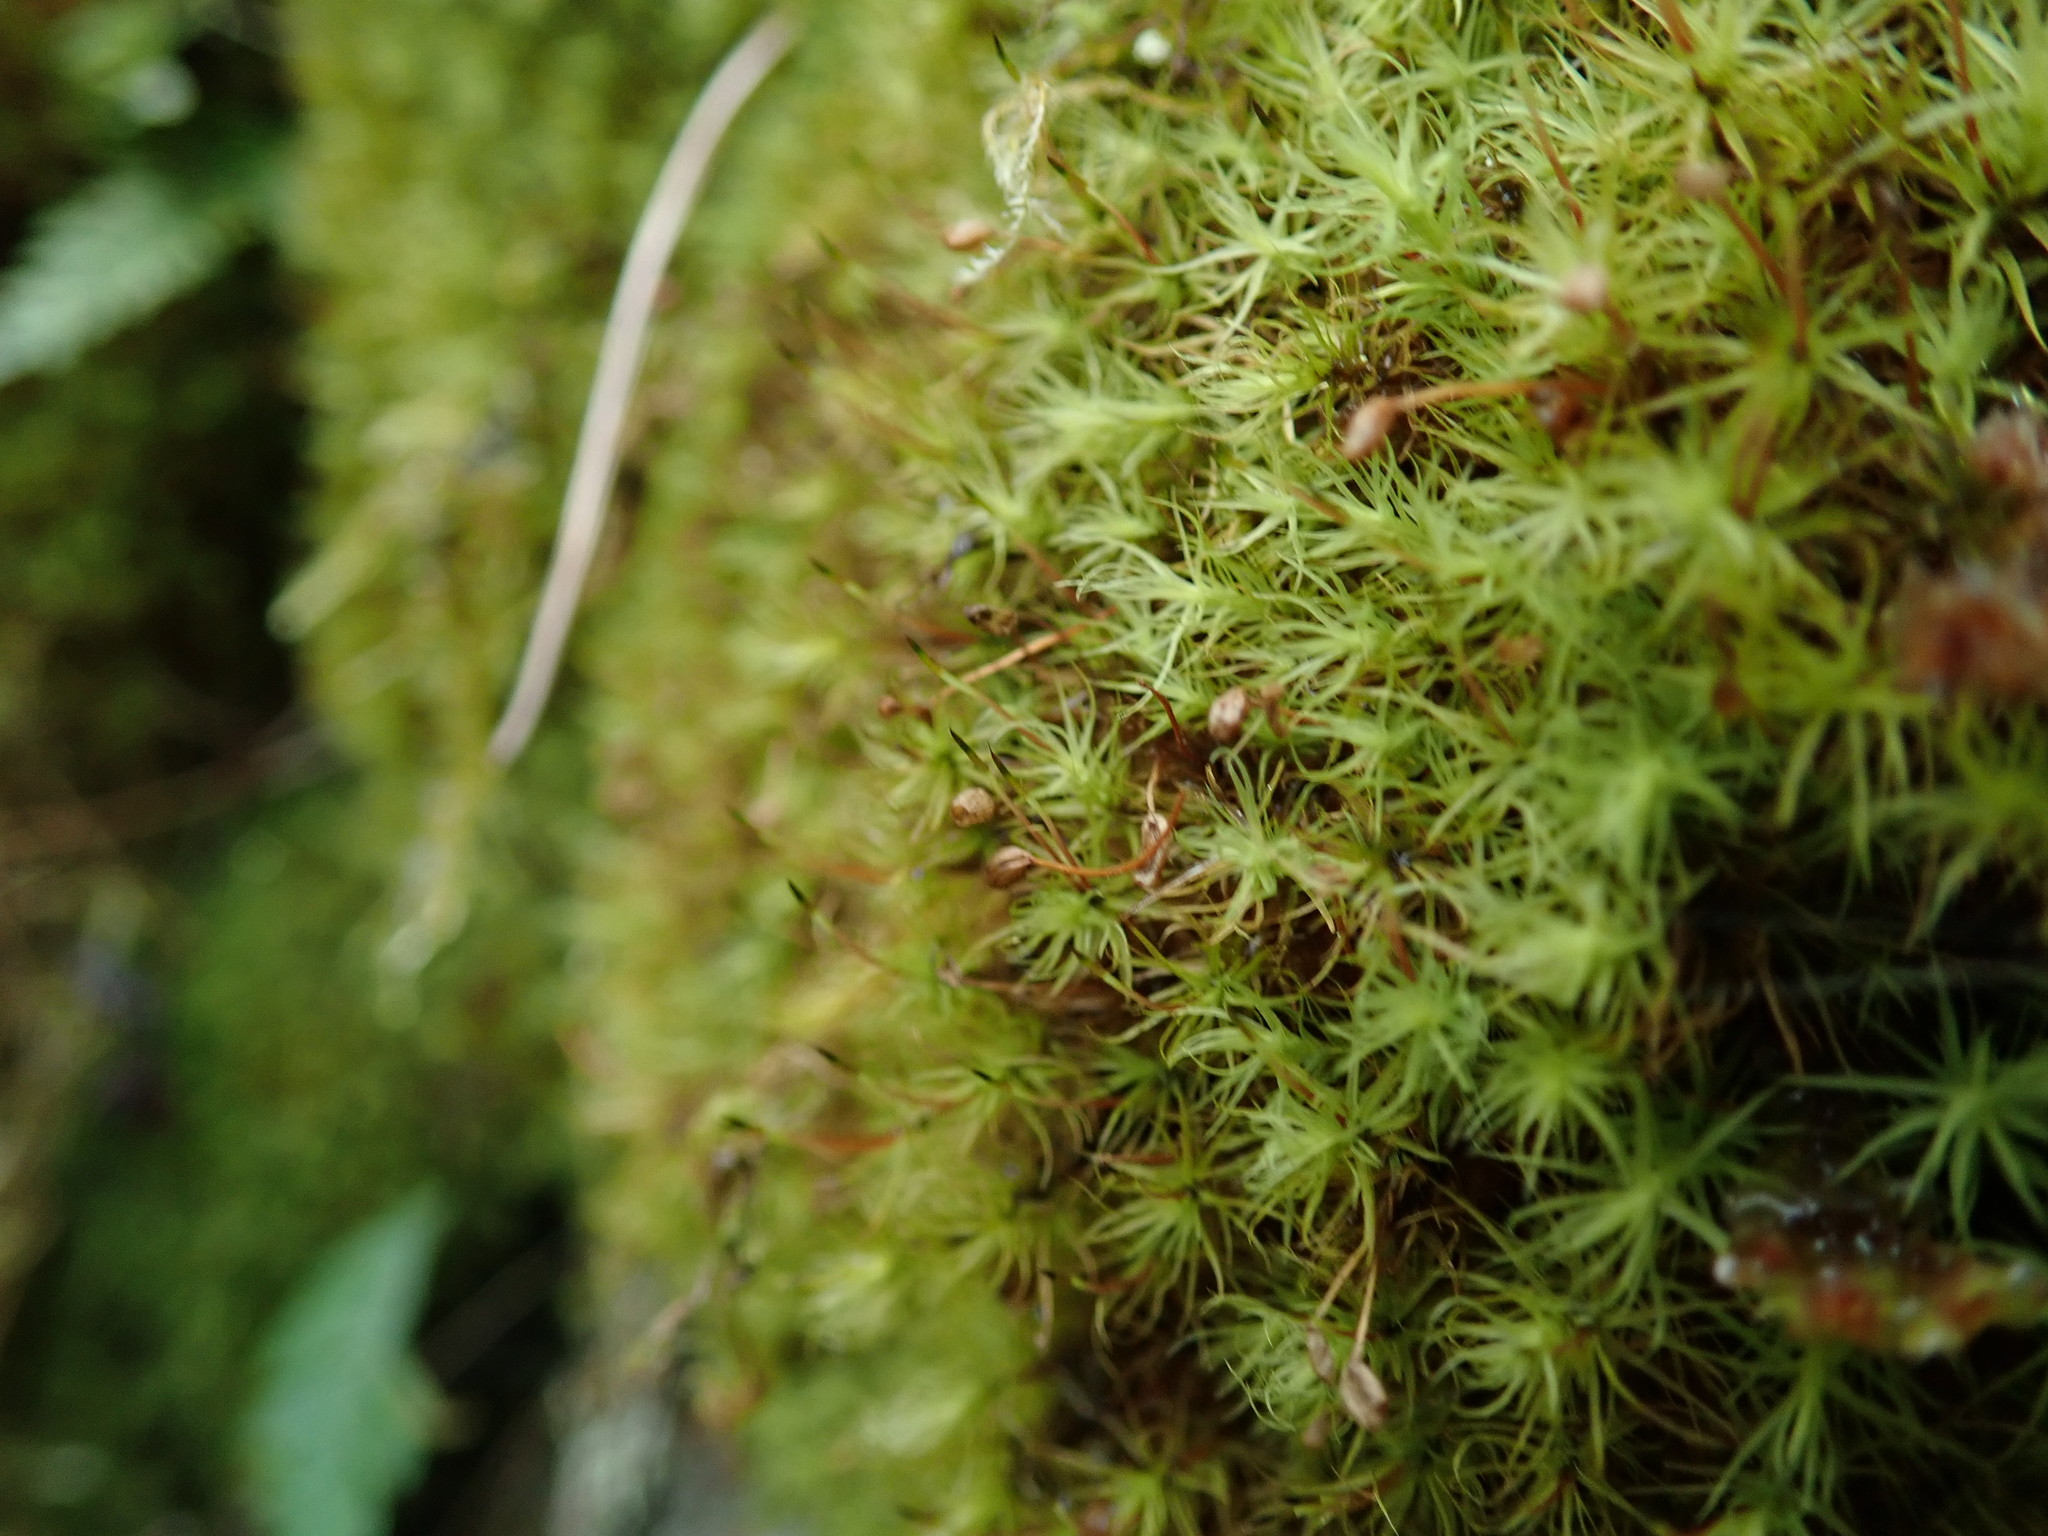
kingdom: Plantae
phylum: Bryophyta
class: Bryopsida
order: Bartramiales
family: Bartramiaceae
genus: Bartramia
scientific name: Bartramia ithyphylla
